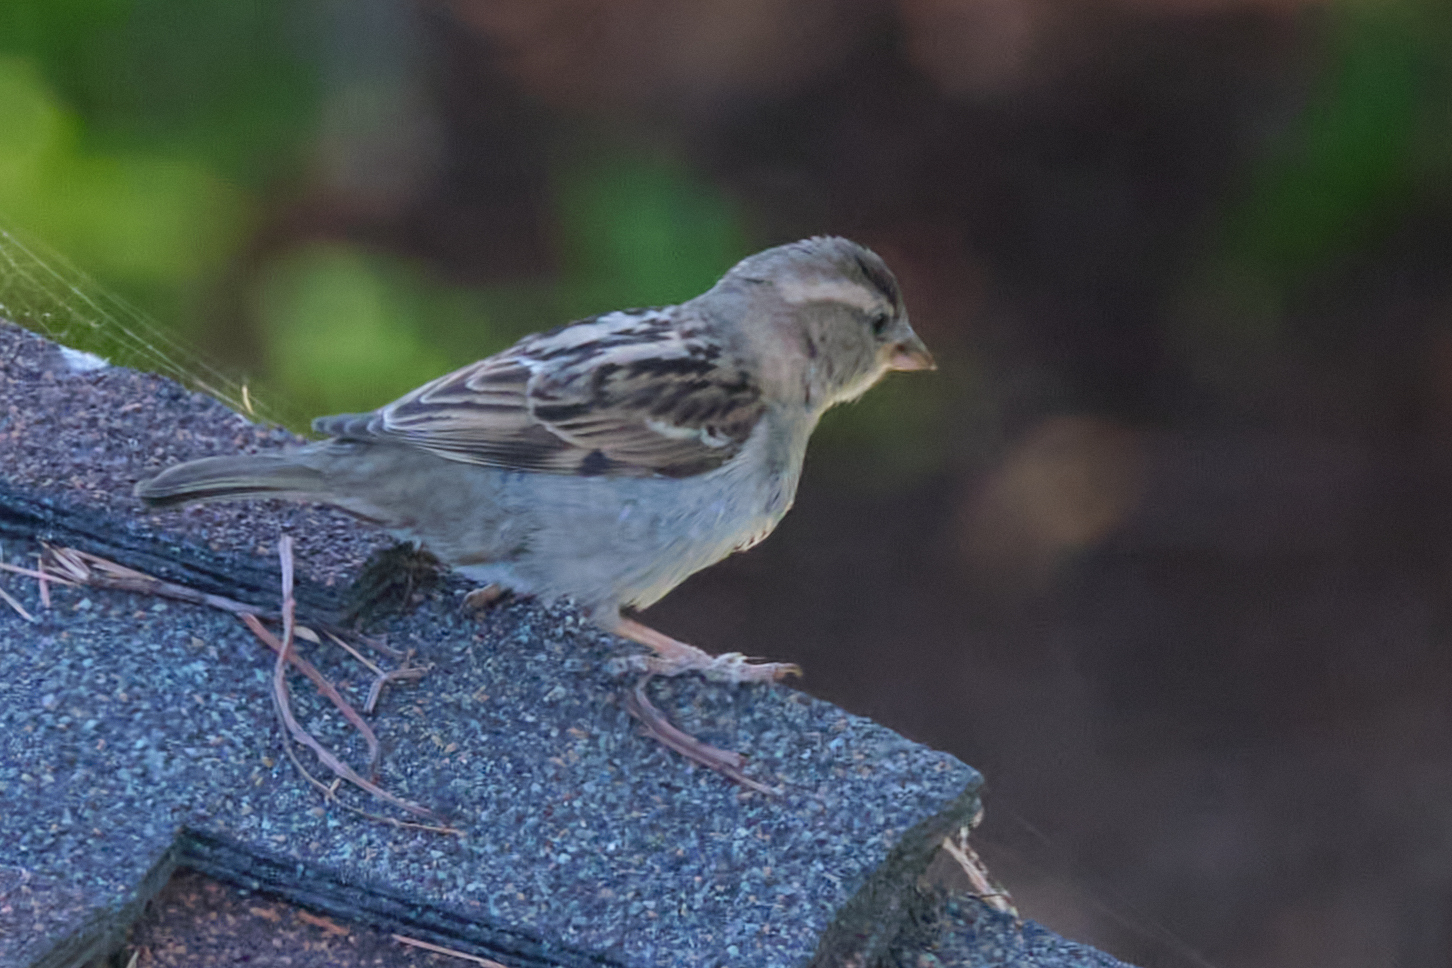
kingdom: Animalia
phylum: Chordata
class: Aves
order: Passeriformes
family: Passeridae
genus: Passer
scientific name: Passer domesticus
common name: House sparrow
